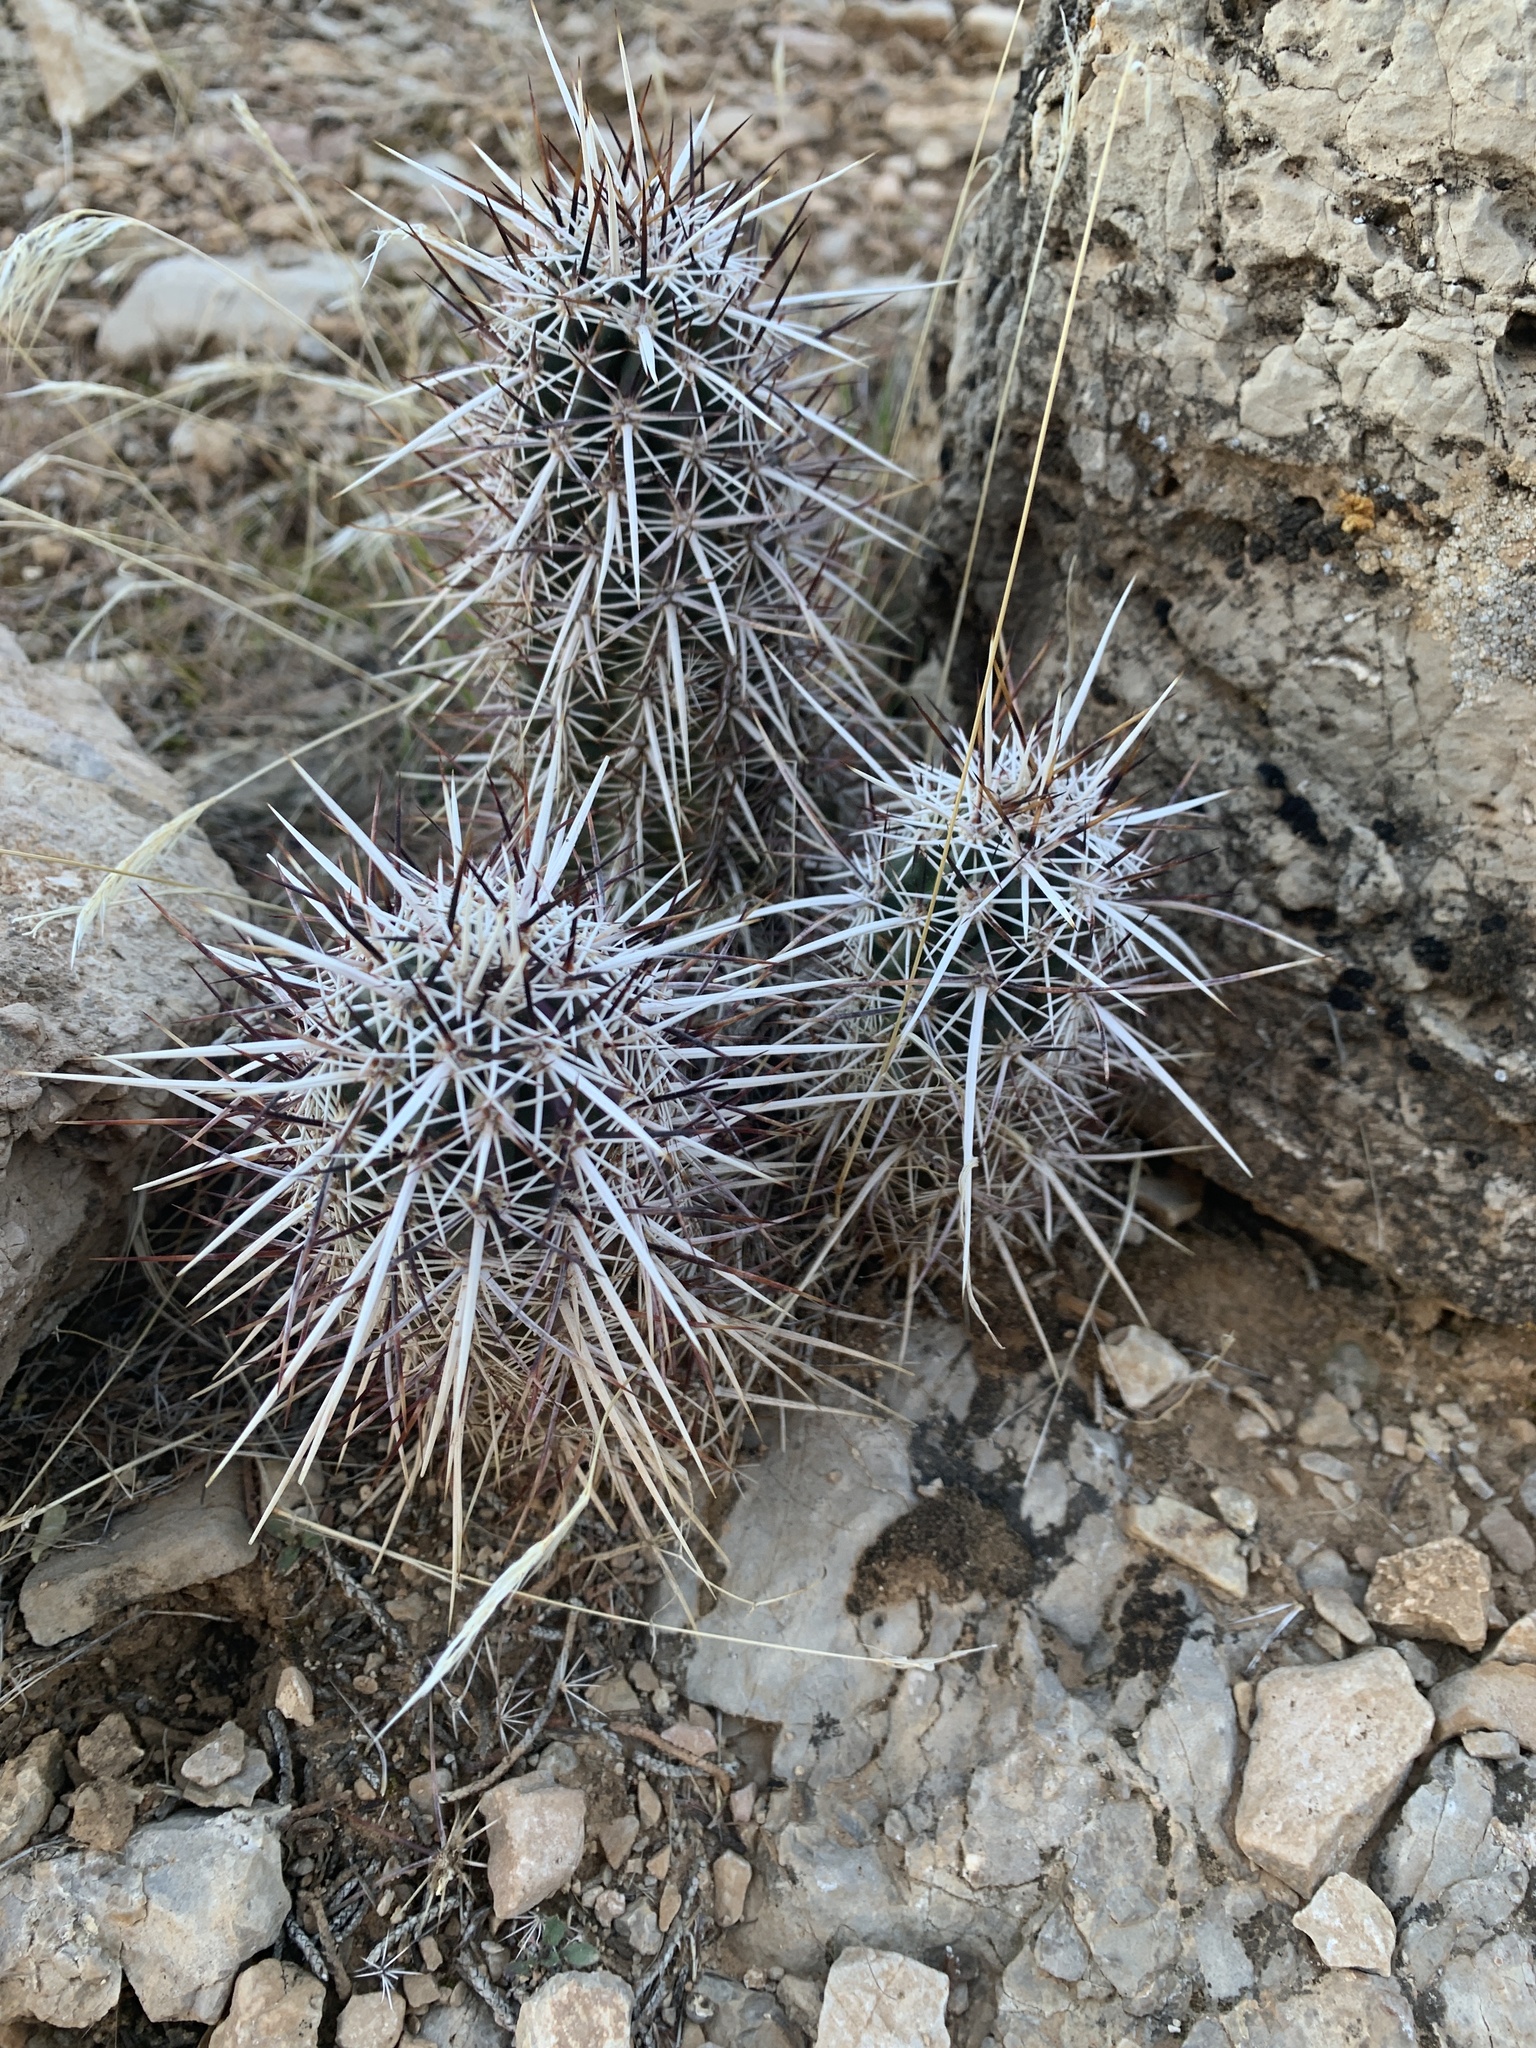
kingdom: Plantae
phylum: Tracheophyta
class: Magnoliopsida
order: Caryophyllales
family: Cactaceae
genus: Echinocereus
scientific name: Echinocereus engelmannii
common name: Engelmann's hedgehog cactus
